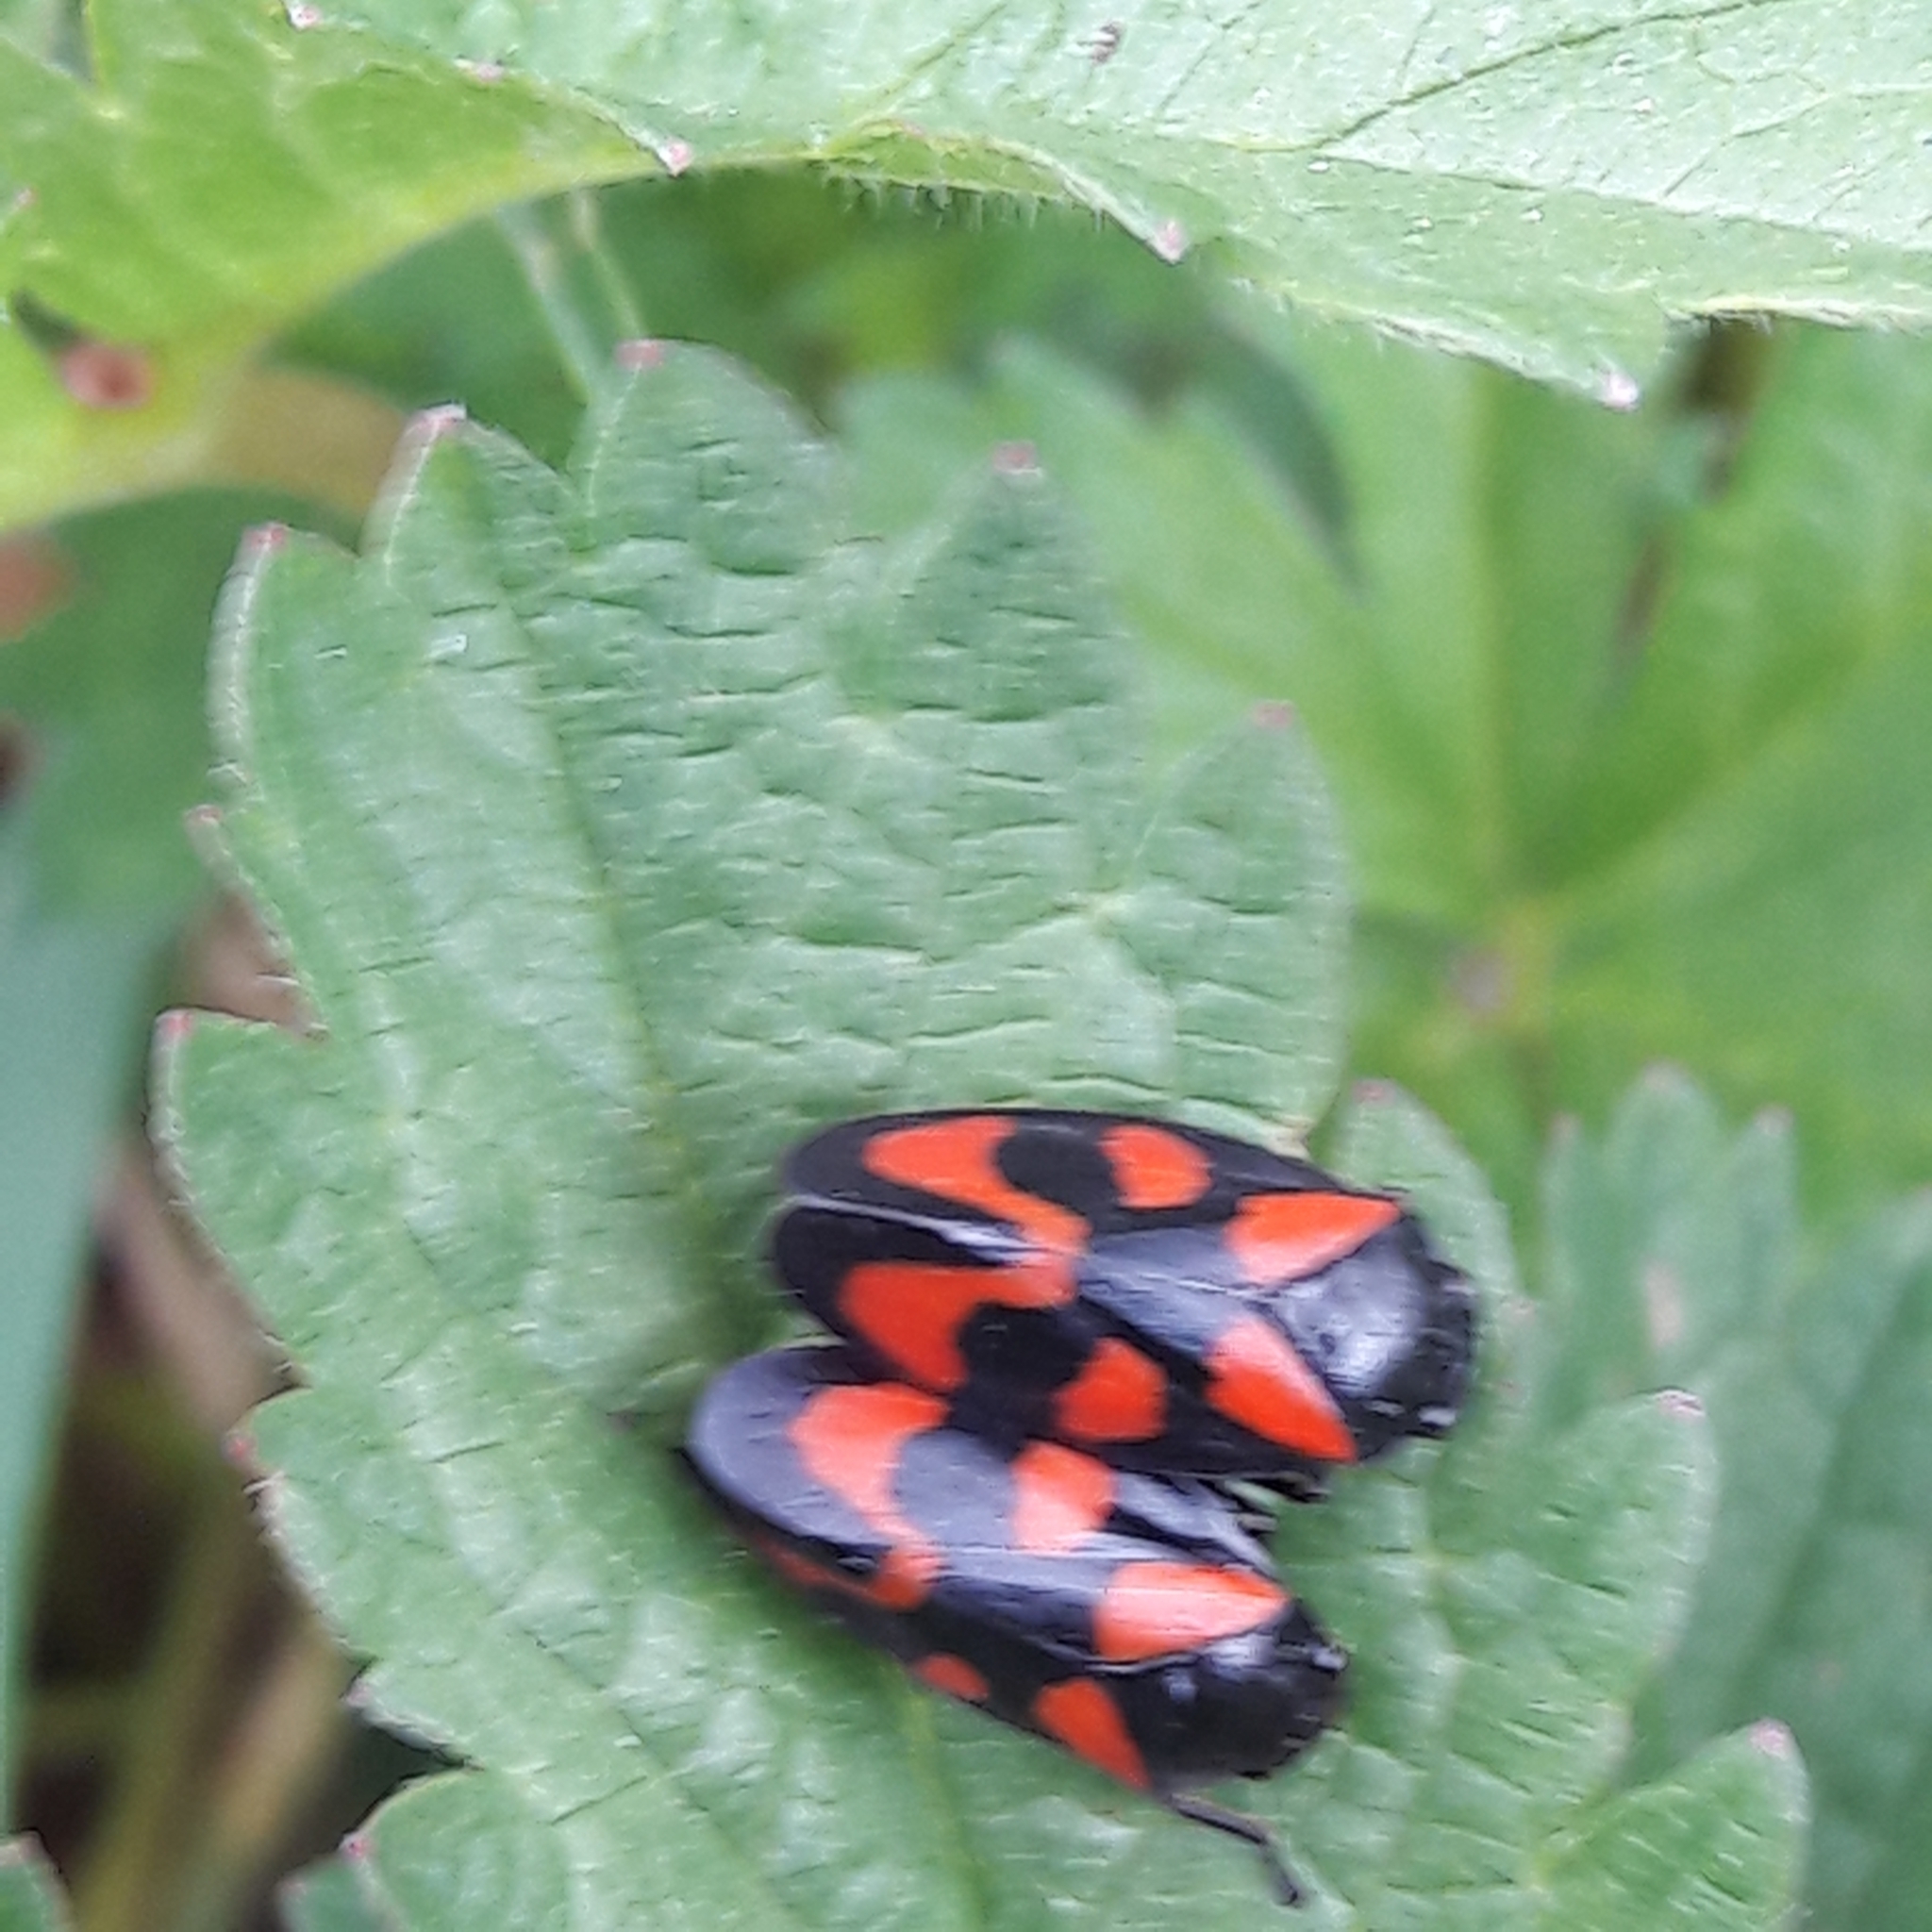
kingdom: Animalia
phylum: Arthropoda
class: Insecta
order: Hemiptera
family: Cercopidae
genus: Cercopis
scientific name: Cercopis vulnerata
